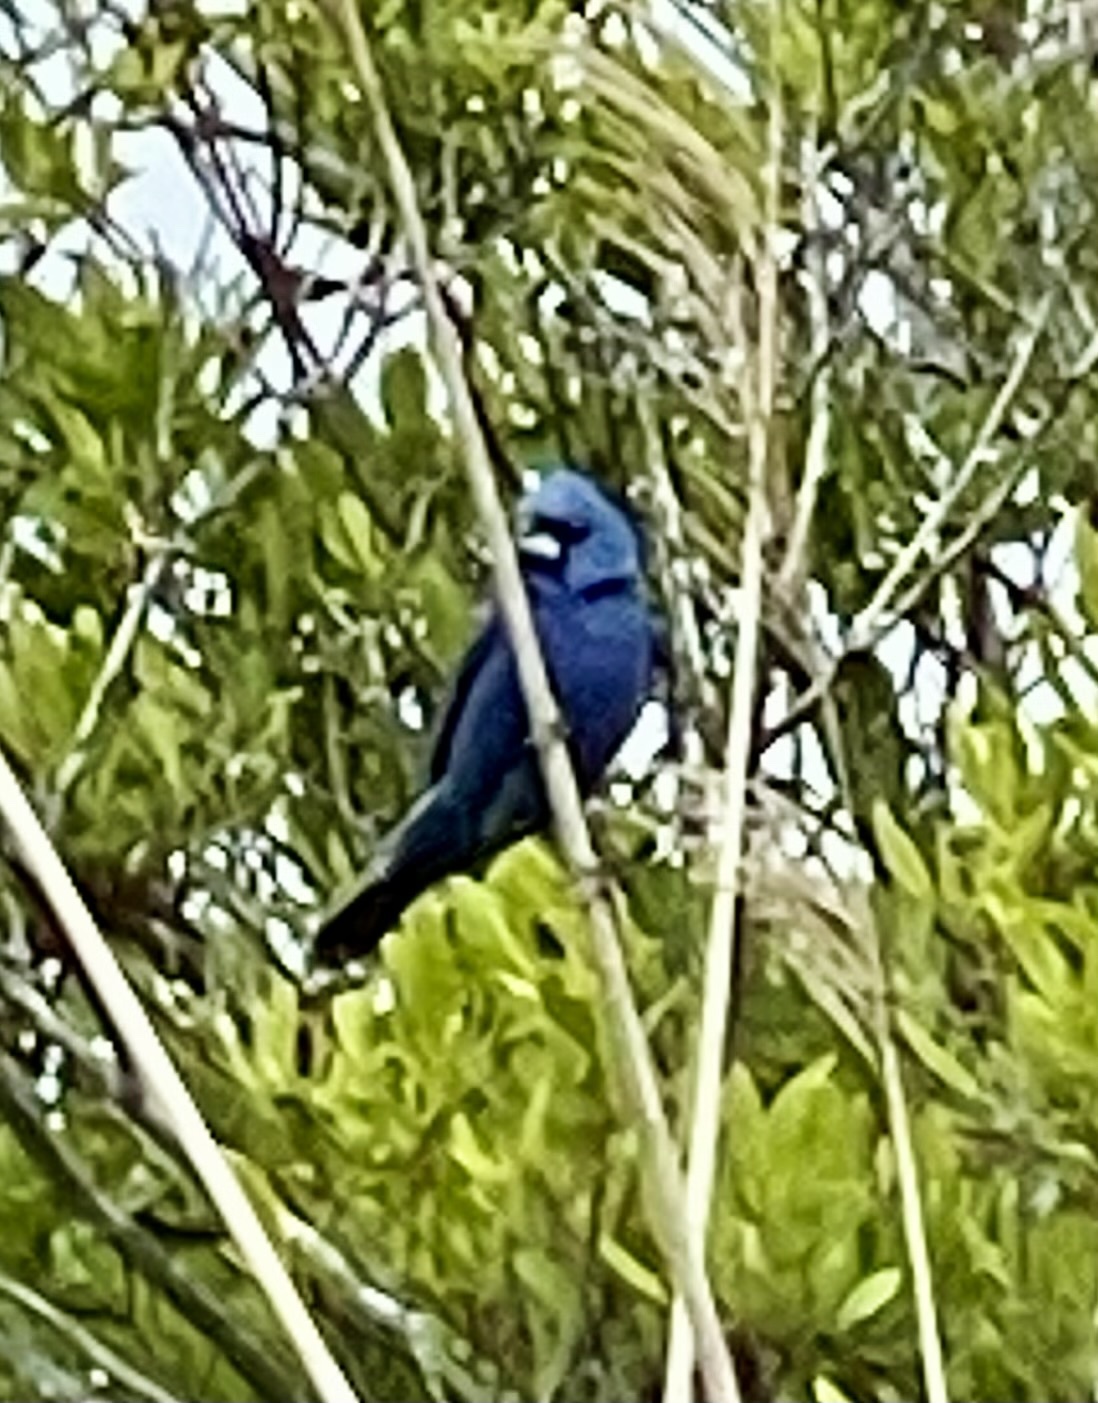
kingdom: Animalia
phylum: Chordata
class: Aves
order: Passeriformes
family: Cardinalidae
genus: Passerina
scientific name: Passerina caerulea
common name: Blue grosbeak
